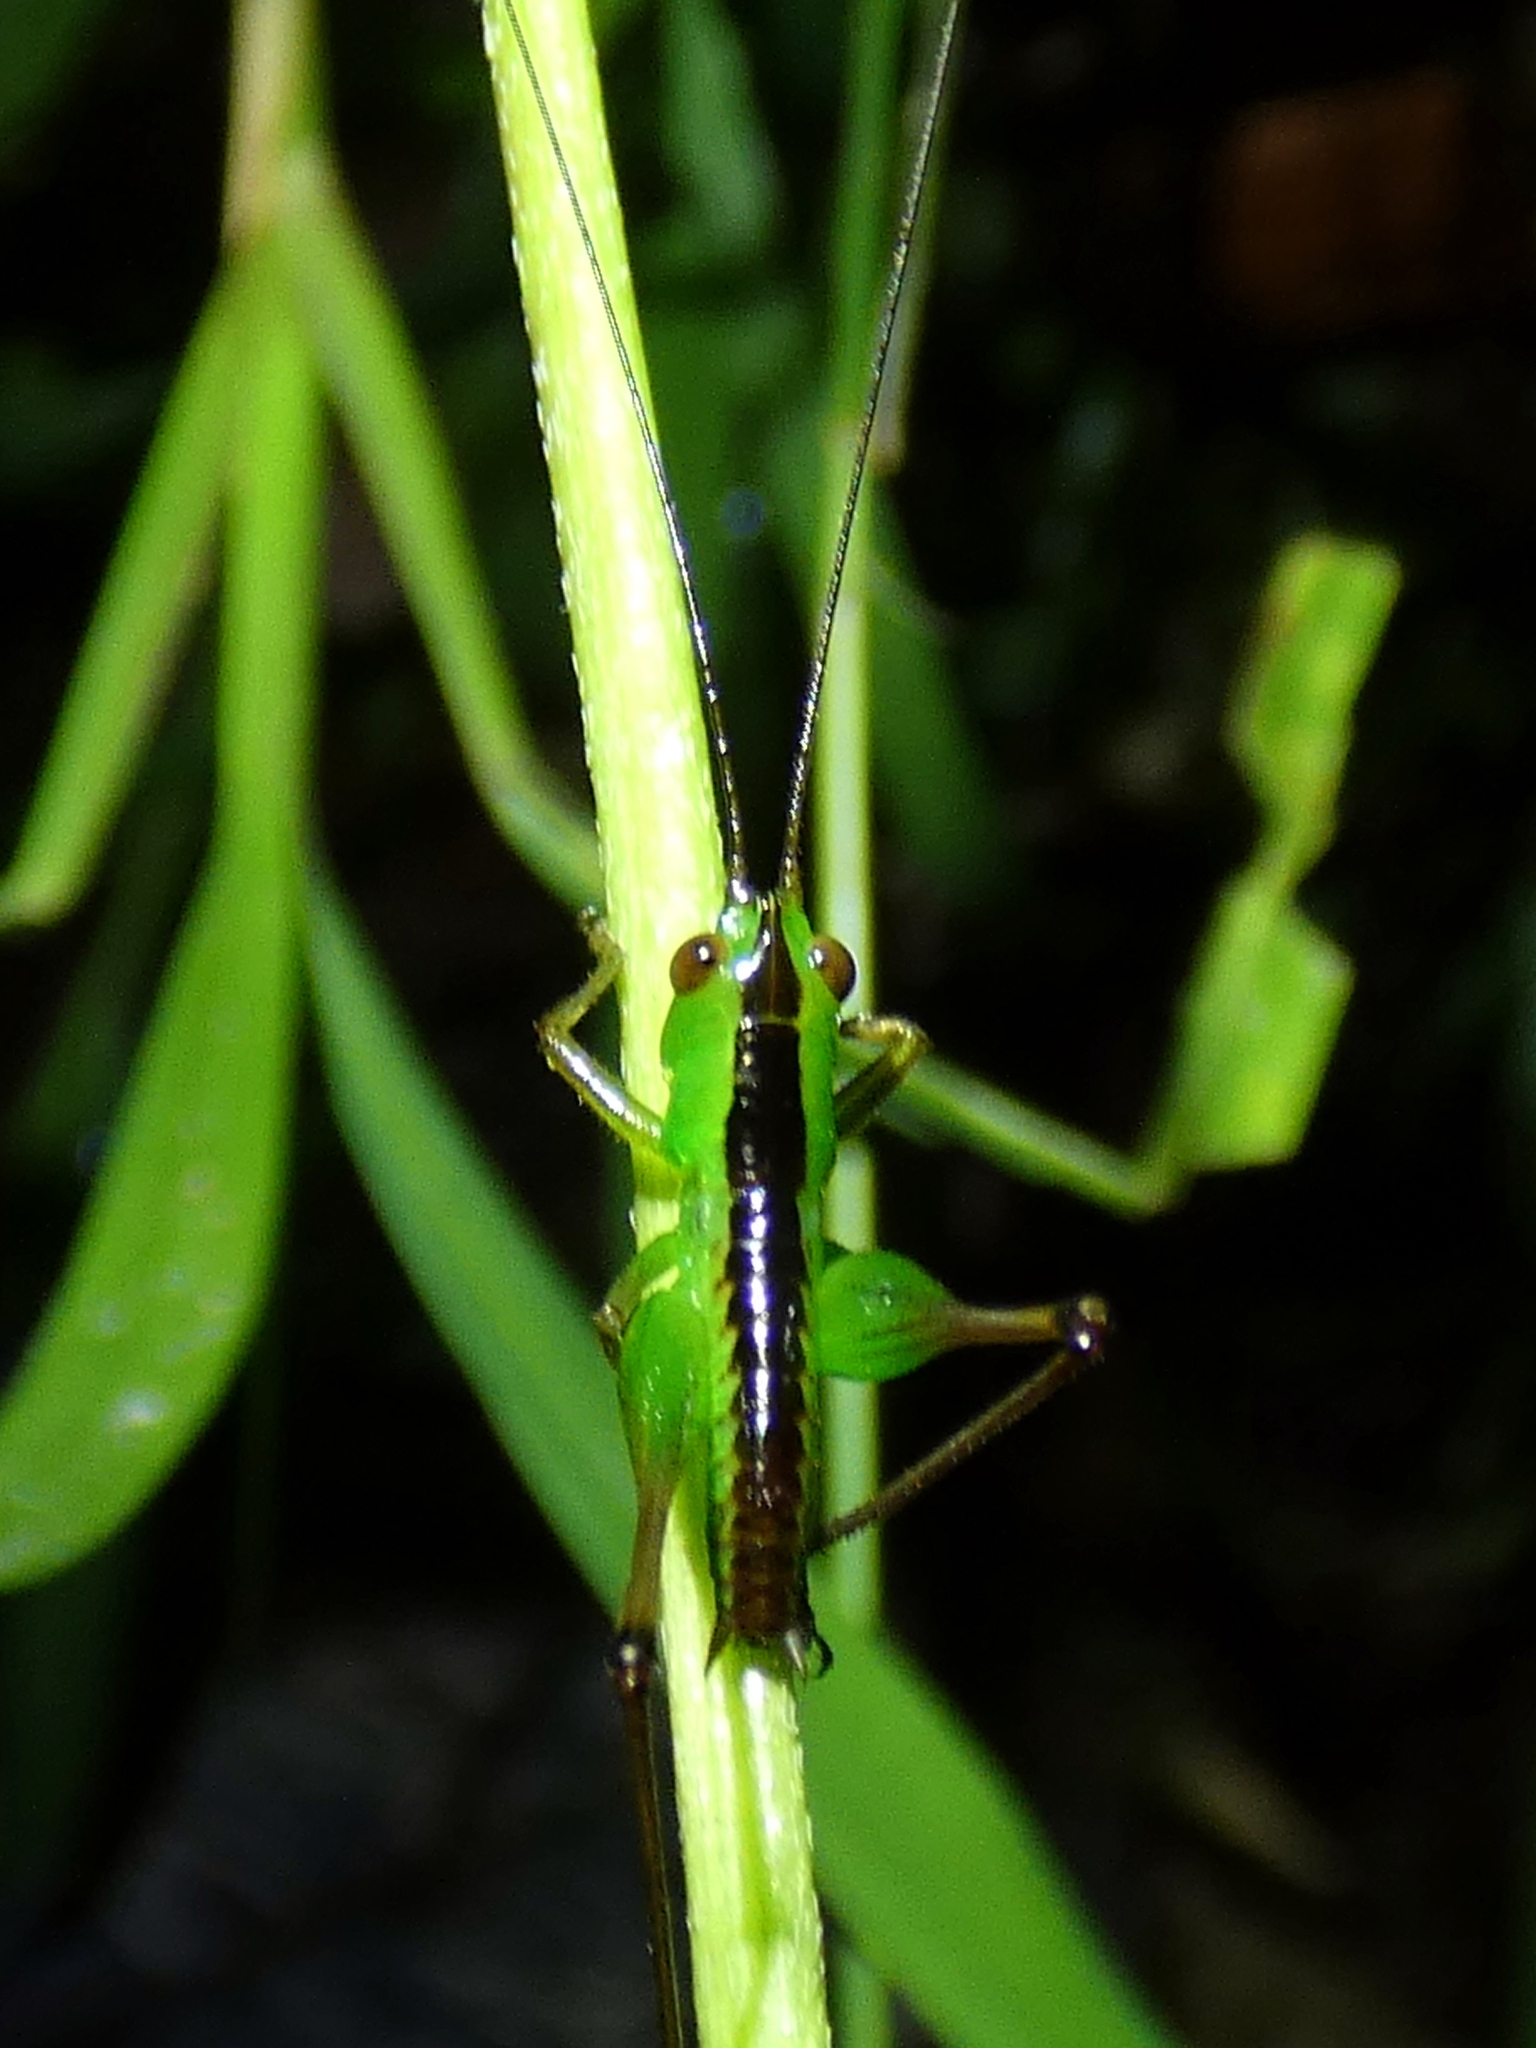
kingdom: Animalia
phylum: Arthropoda
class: Insecta
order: Orthoptera
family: Tettigoniidae
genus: Conocephalus
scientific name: Conocephalus semivittatus
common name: Blackish meadow katydid
